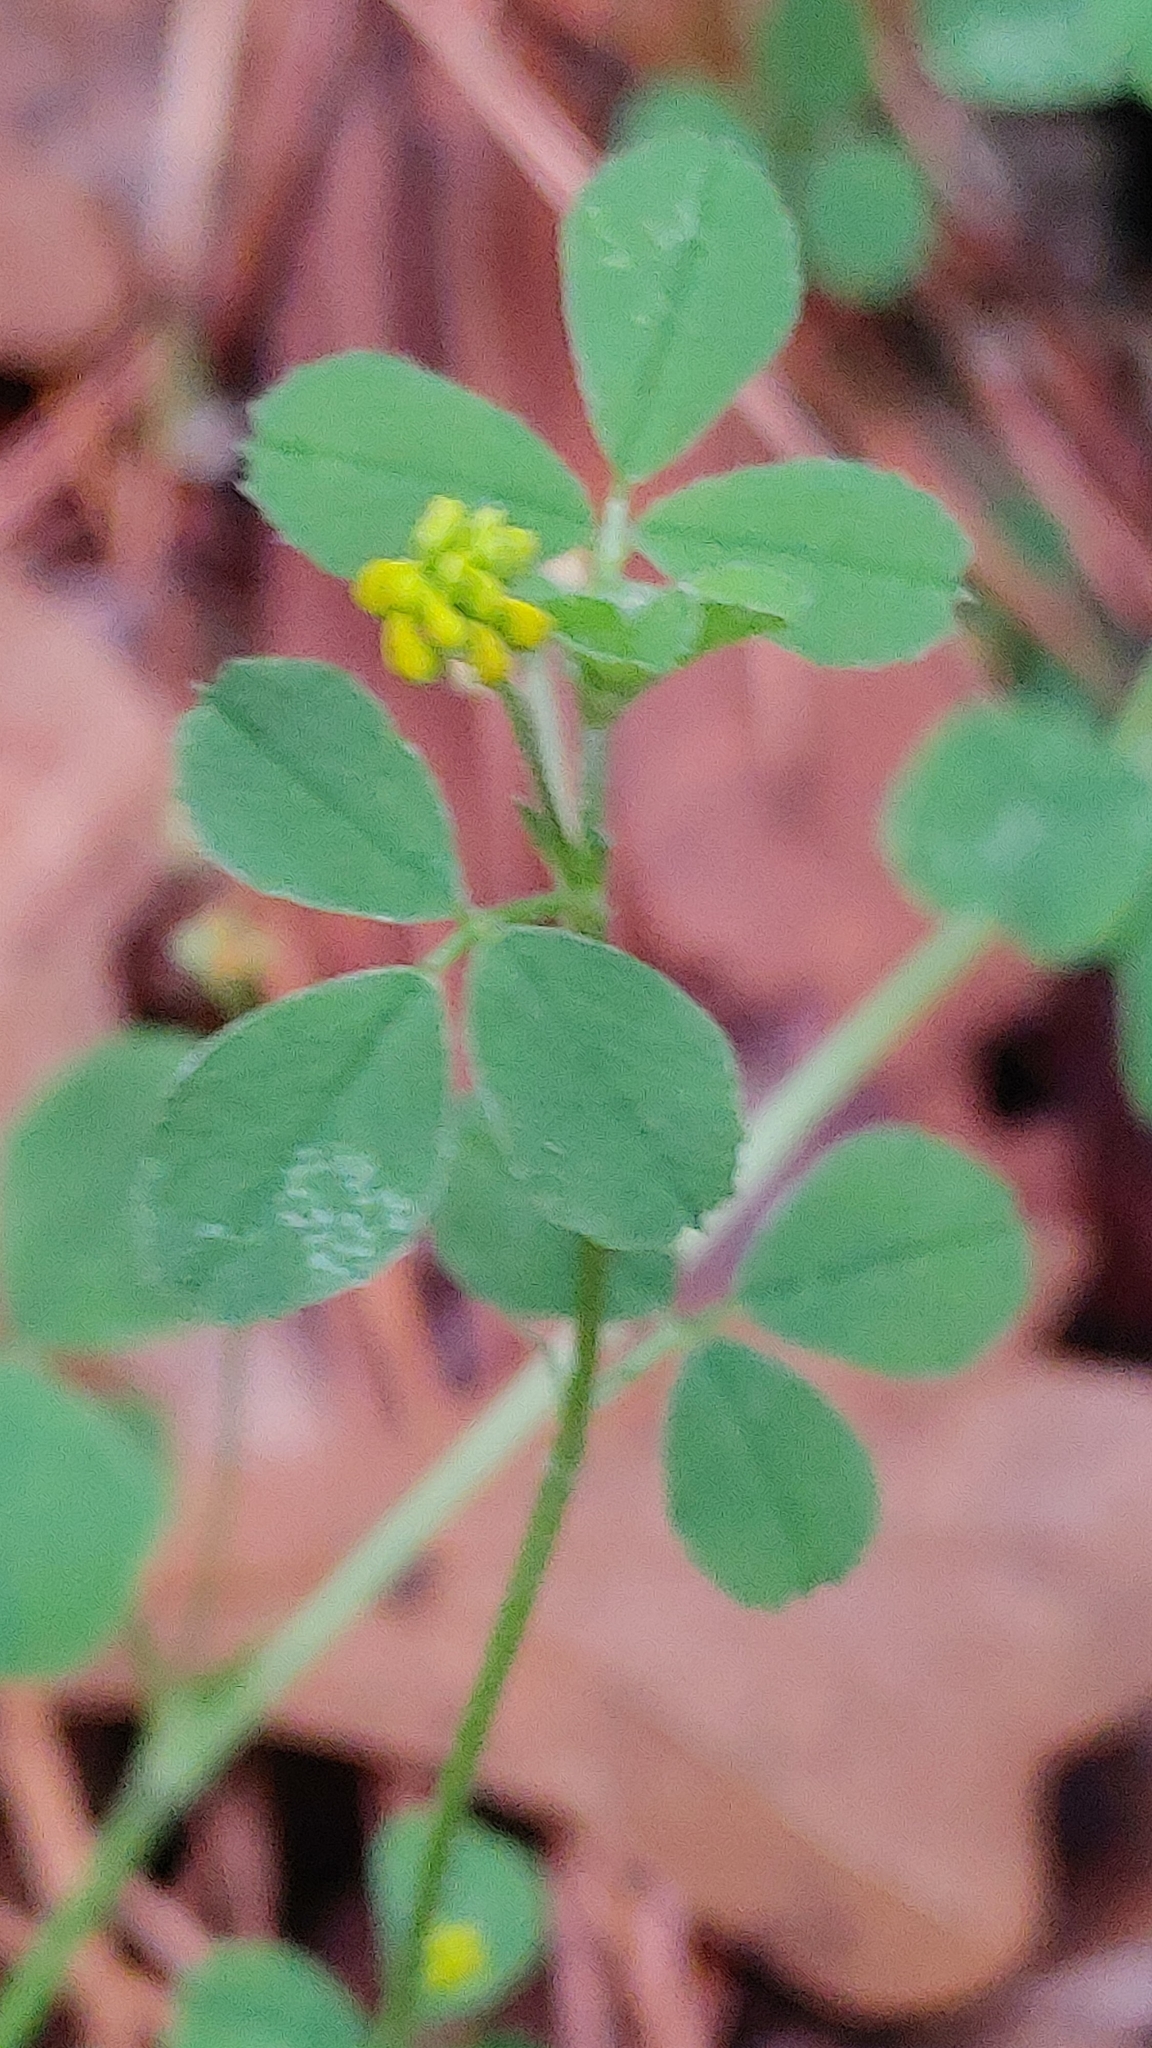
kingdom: Plantae
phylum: Tracheophyta
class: Magnoliopsida
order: Fabales
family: Fabaceae
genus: Medicago
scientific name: Medicago lupulina
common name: Black medick
